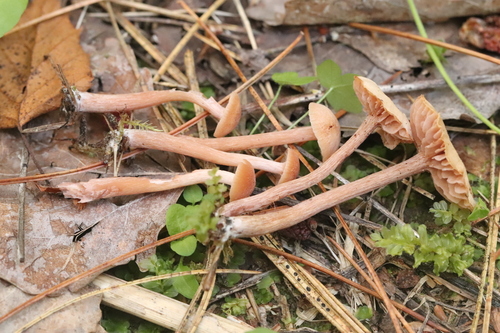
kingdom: Fungi
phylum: Basidiomycota
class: Agaricomycetes
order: Agaricales
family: Hydnangiaceae
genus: Laccaria
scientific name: Laccaria proxima
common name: Scurfy deceiver
